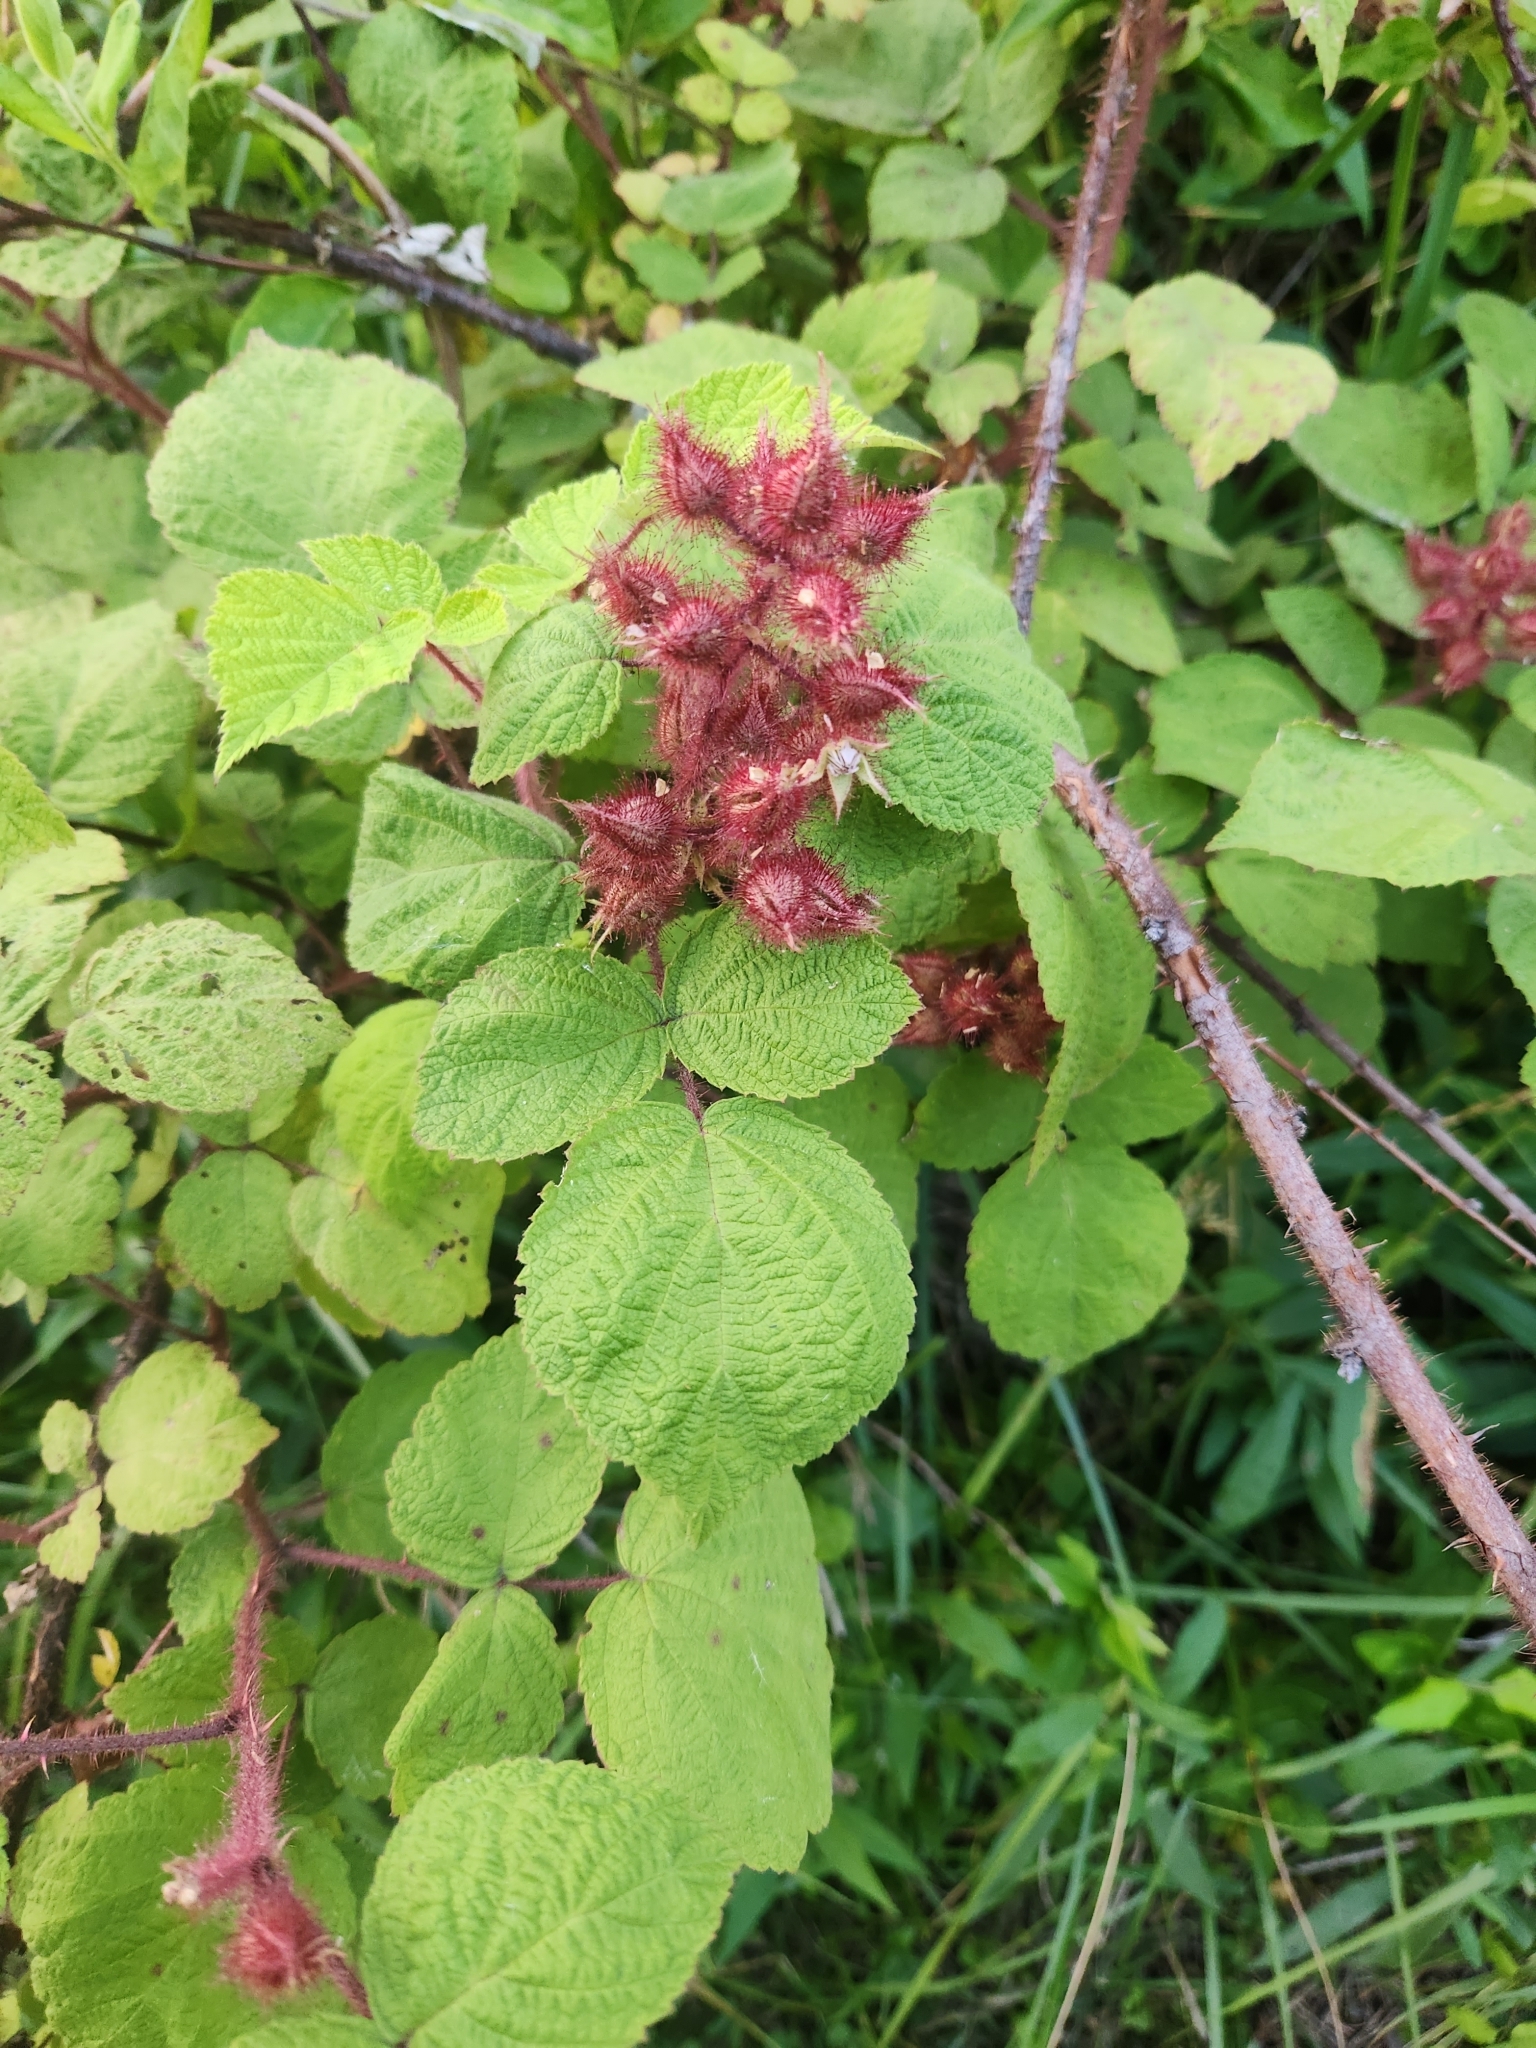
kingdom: Plantae
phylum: Tracheophyta
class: Magnoliopsida
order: Rosales
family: Rosaceae
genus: Rubus
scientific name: Rubus phoenicolasius
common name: Japanese wineberry
